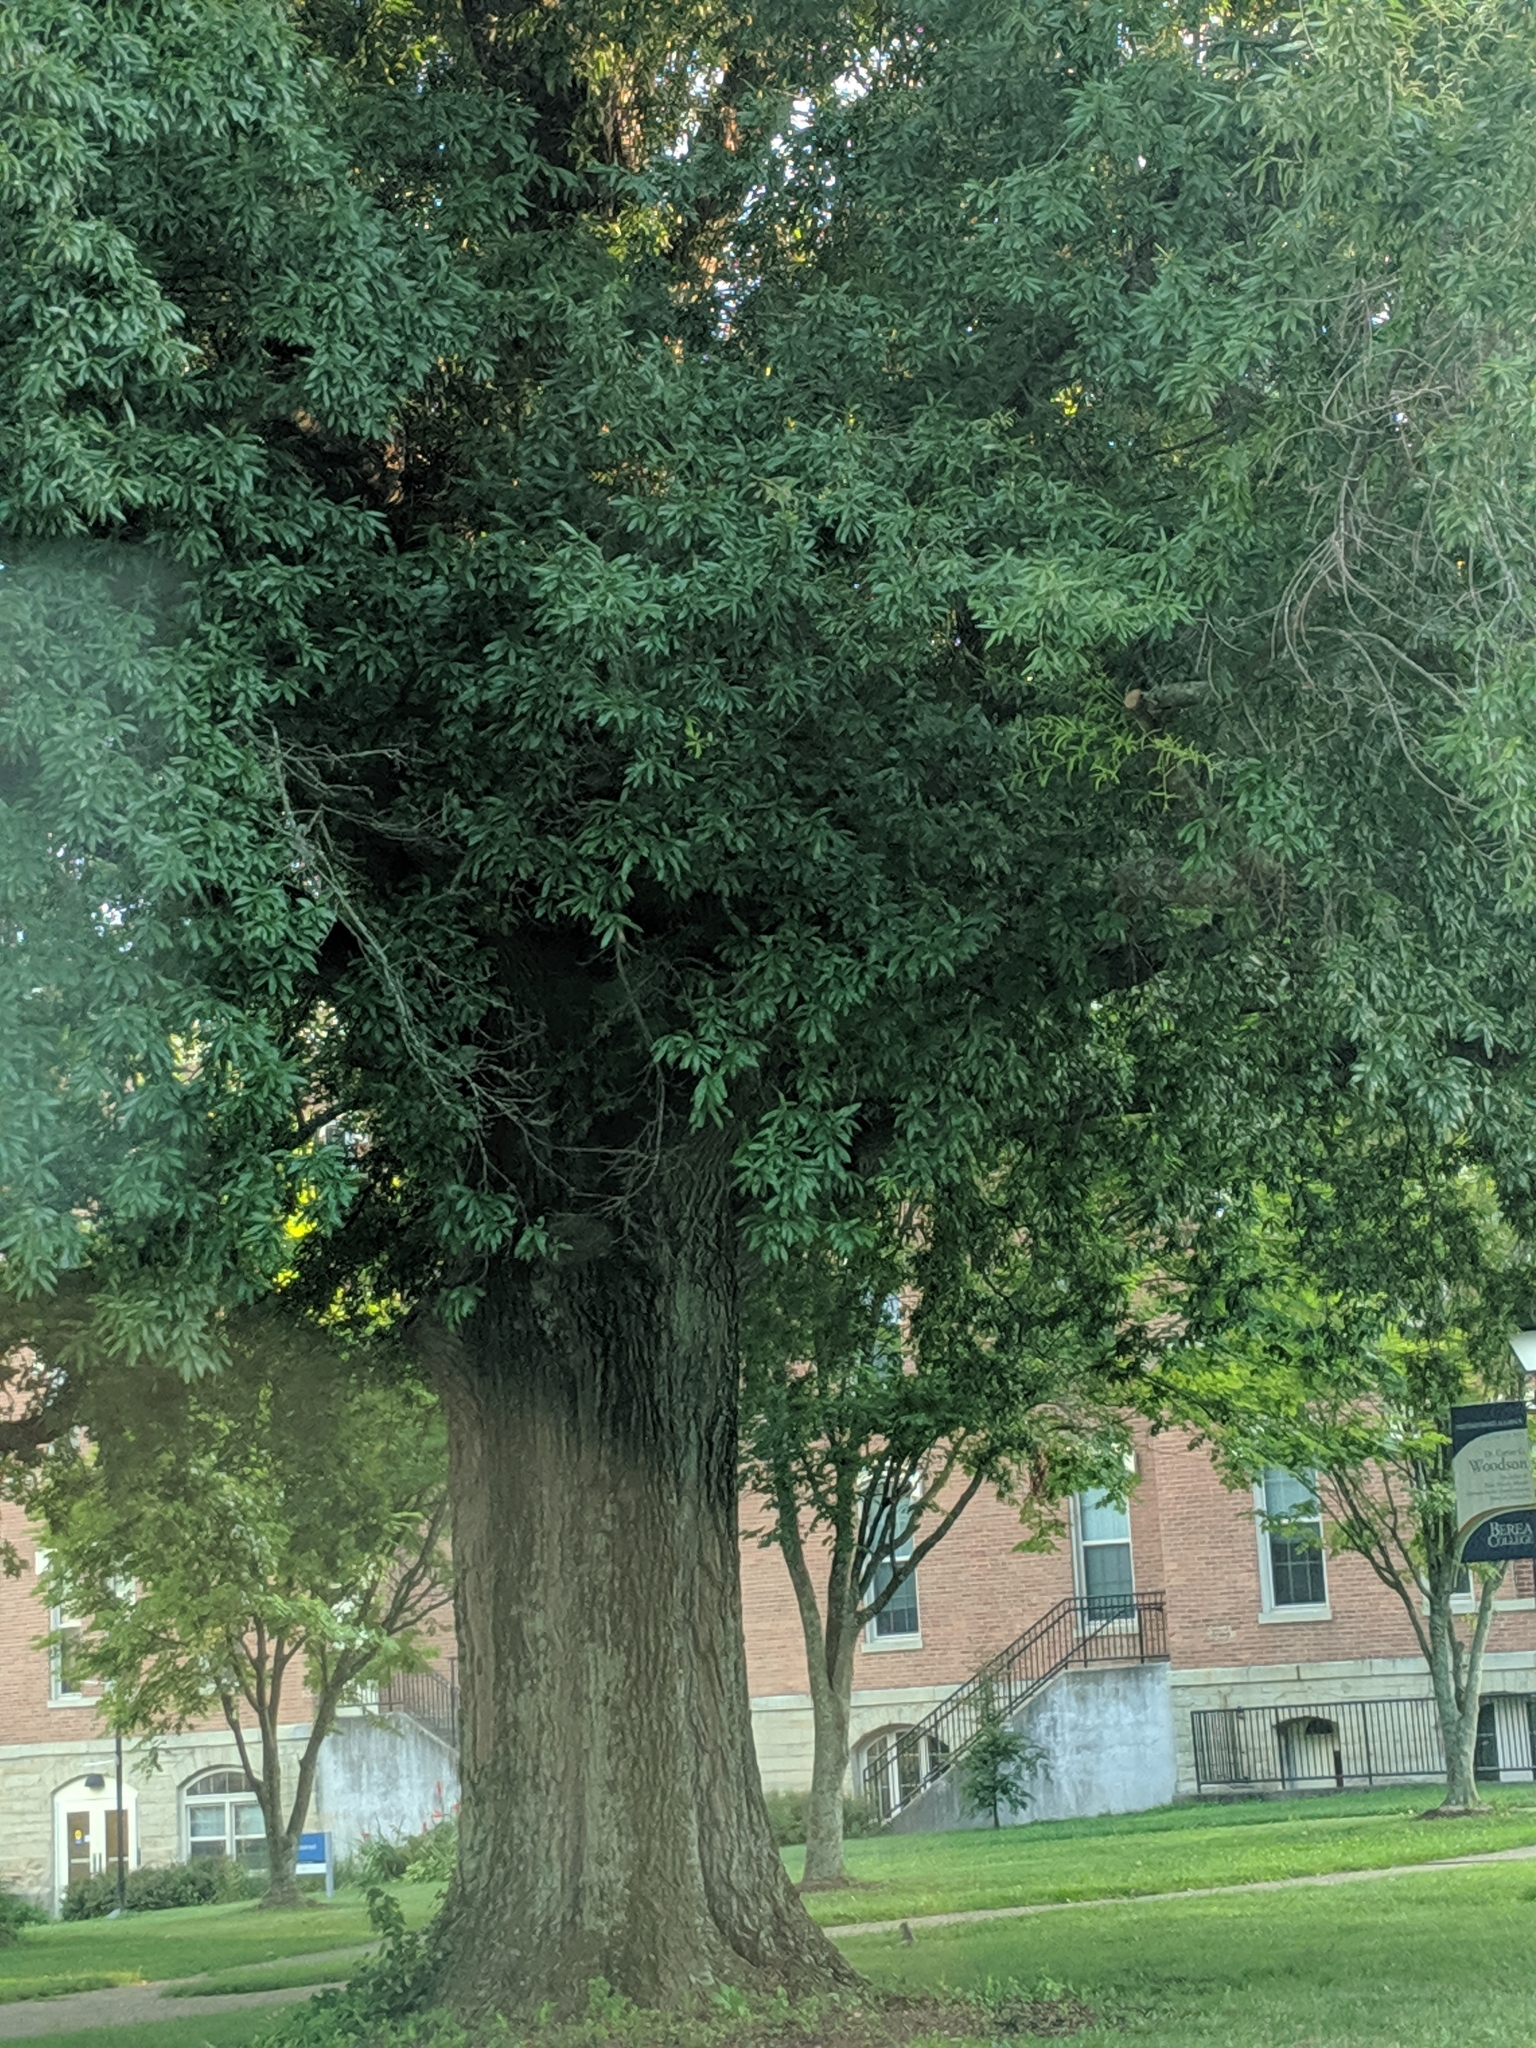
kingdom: Plantae
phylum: Tracheophyta
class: Magnoliopsida
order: Fagales
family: Fagaceae
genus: Quercus
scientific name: Quercus phellos
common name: Willow oak
